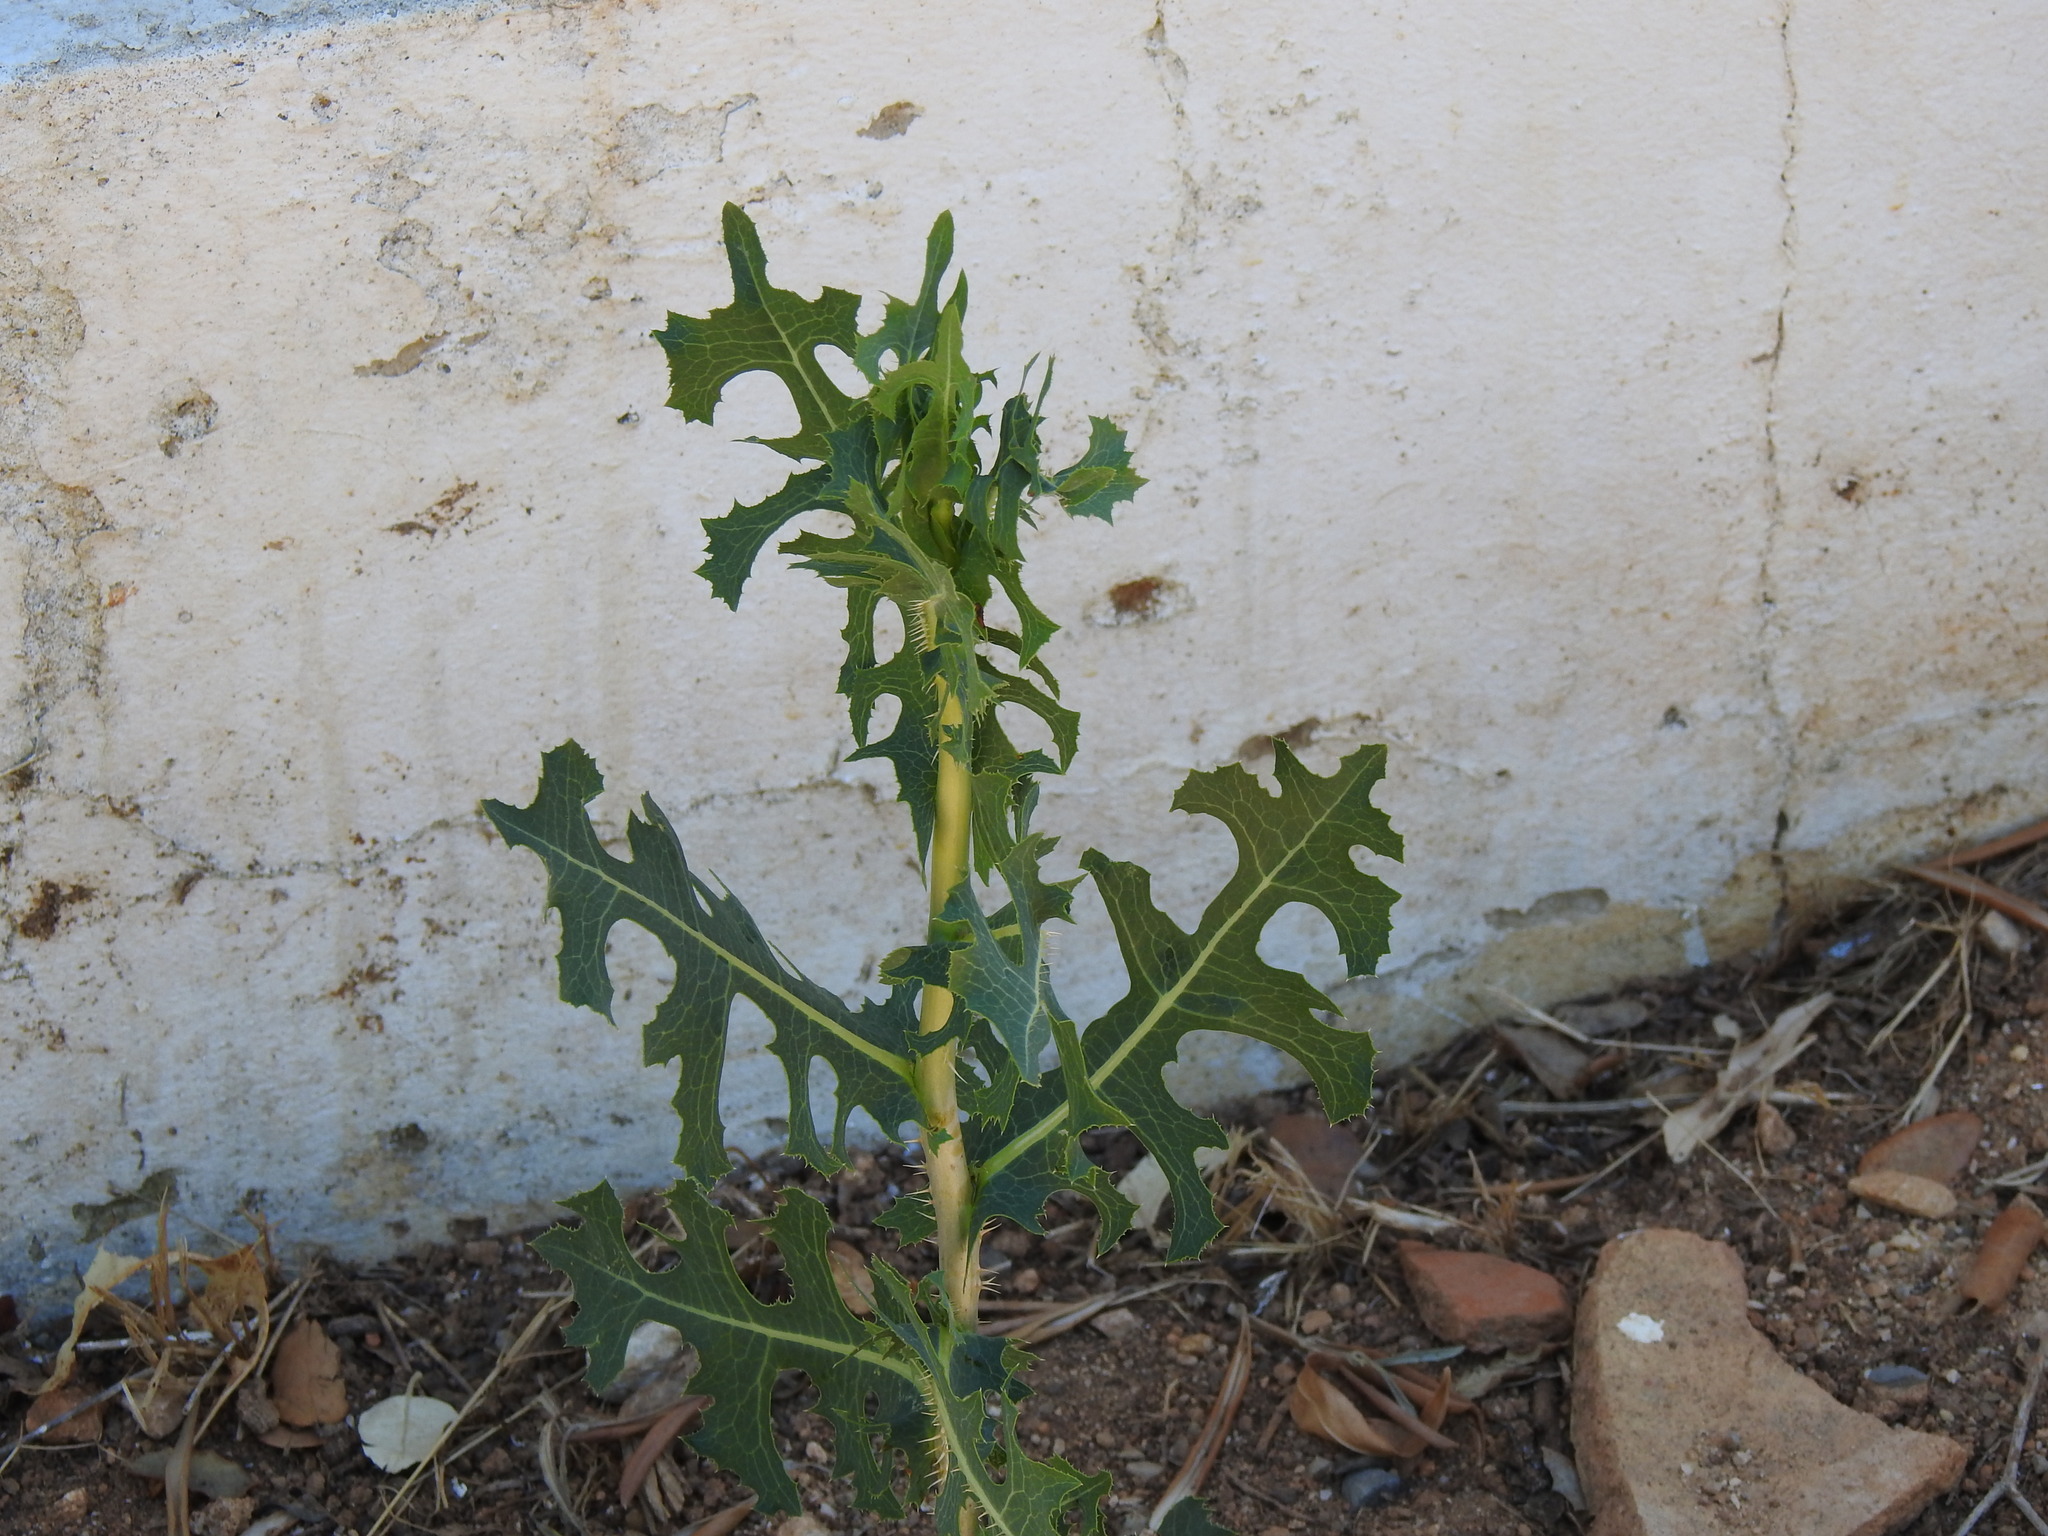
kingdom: Plantae
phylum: Tracheophyta
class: Magnoliopsida
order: Asterales
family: Asteraceae
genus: Lactuca
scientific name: Lactuca serriola
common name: Prickly lettuce
